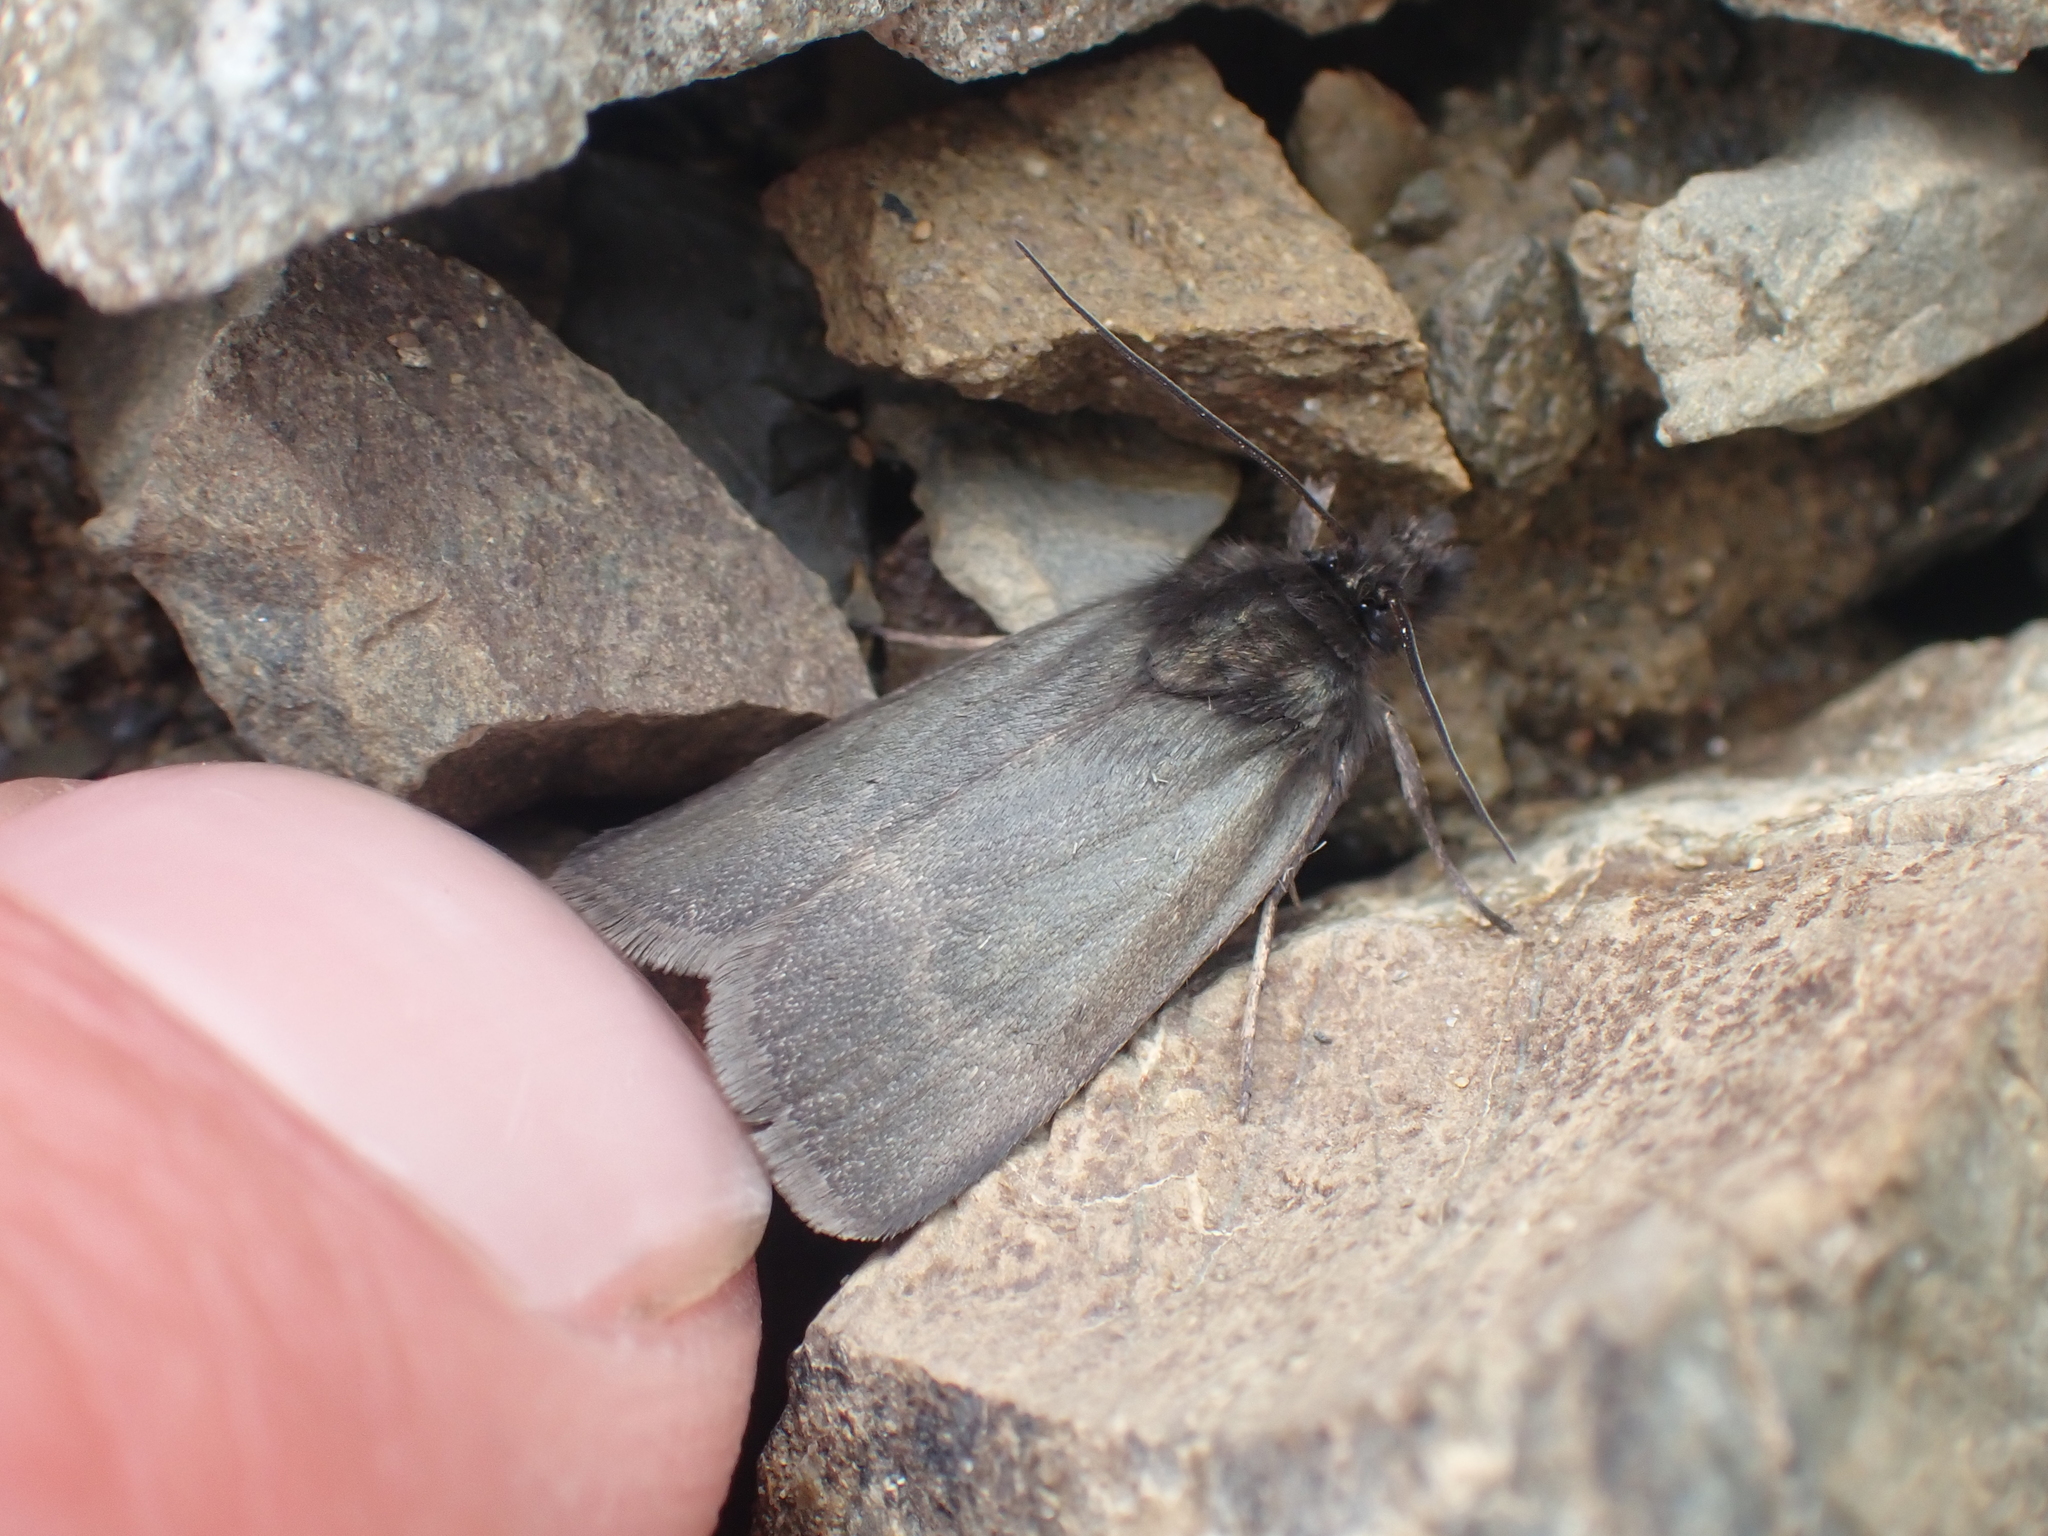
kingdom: Animalia
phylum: Arthropoda
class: Insecta
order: Lepidoptera
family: Crambidae
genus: Orocrambus
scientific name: Orocrambus melampetrus
